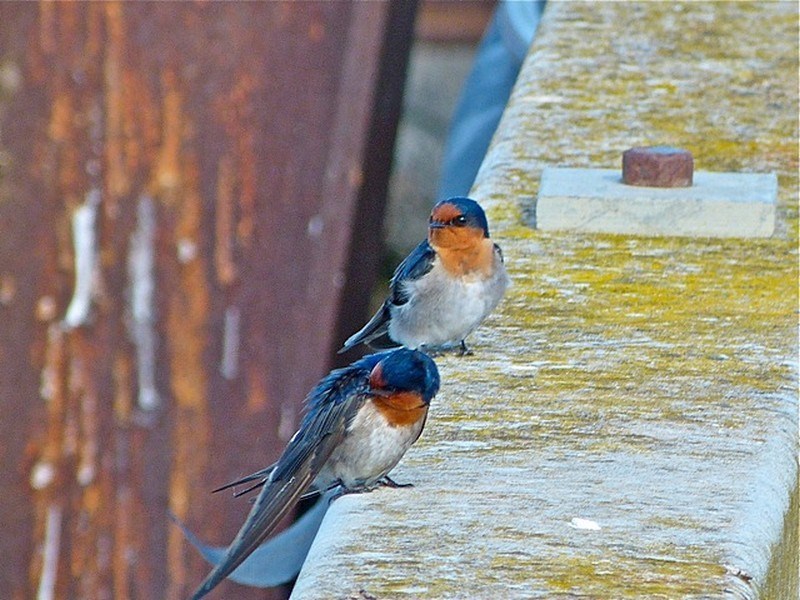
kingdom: Animalia
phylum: Chordata
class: Aves
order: Passeriformes
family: Hirundinidae
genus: Hirundo
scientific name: Hirundo neoxena
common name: Welcome swallow
